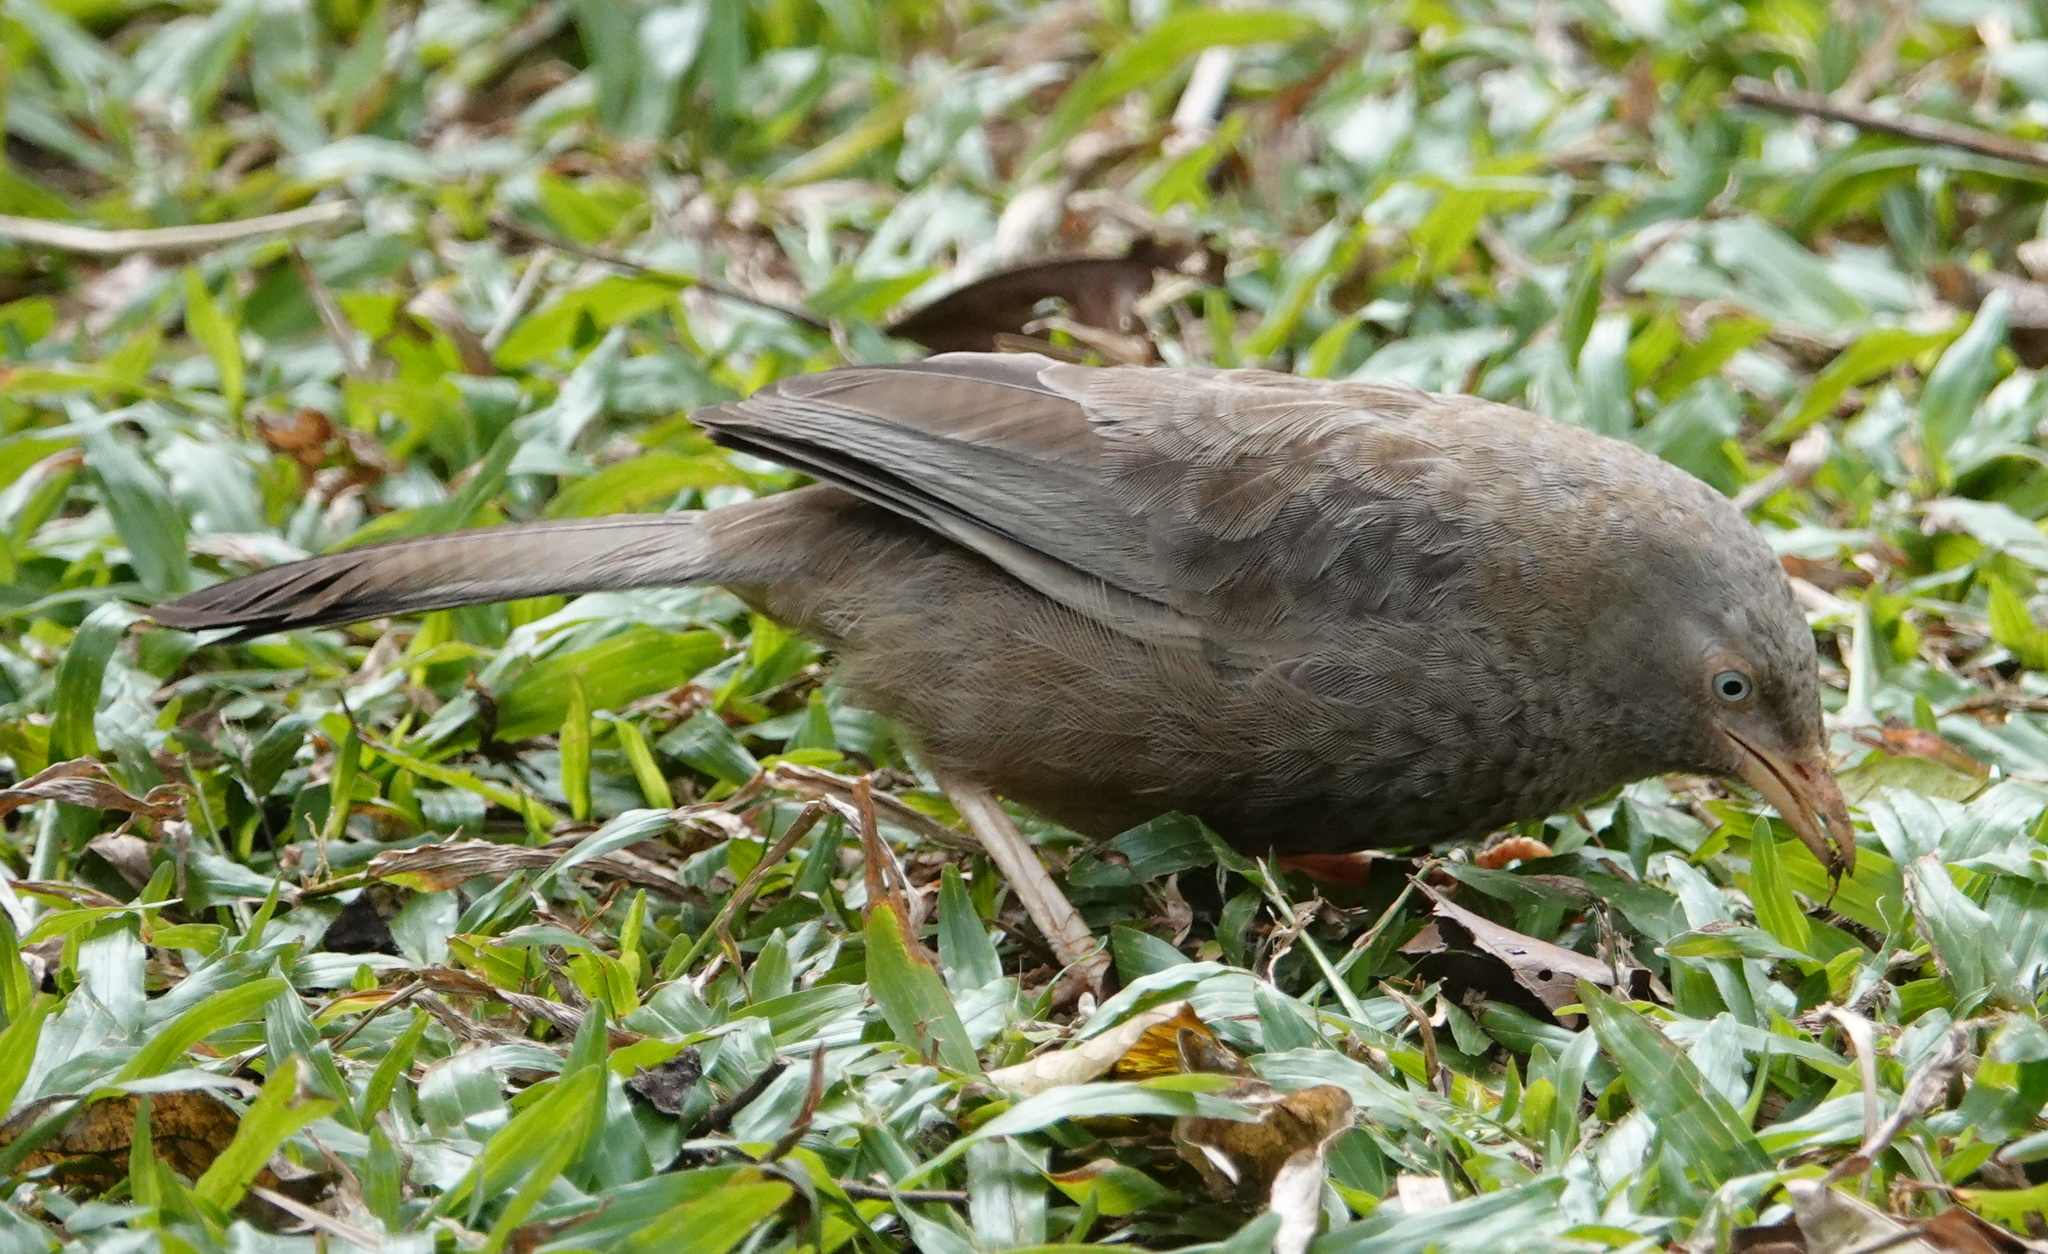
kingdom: Animalia
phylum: Chordata
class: Aves
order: Passeriformes
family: Leiothrichidae
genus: Turdoides
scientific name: Turdoides affinis
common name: Yellow-billed babbler
